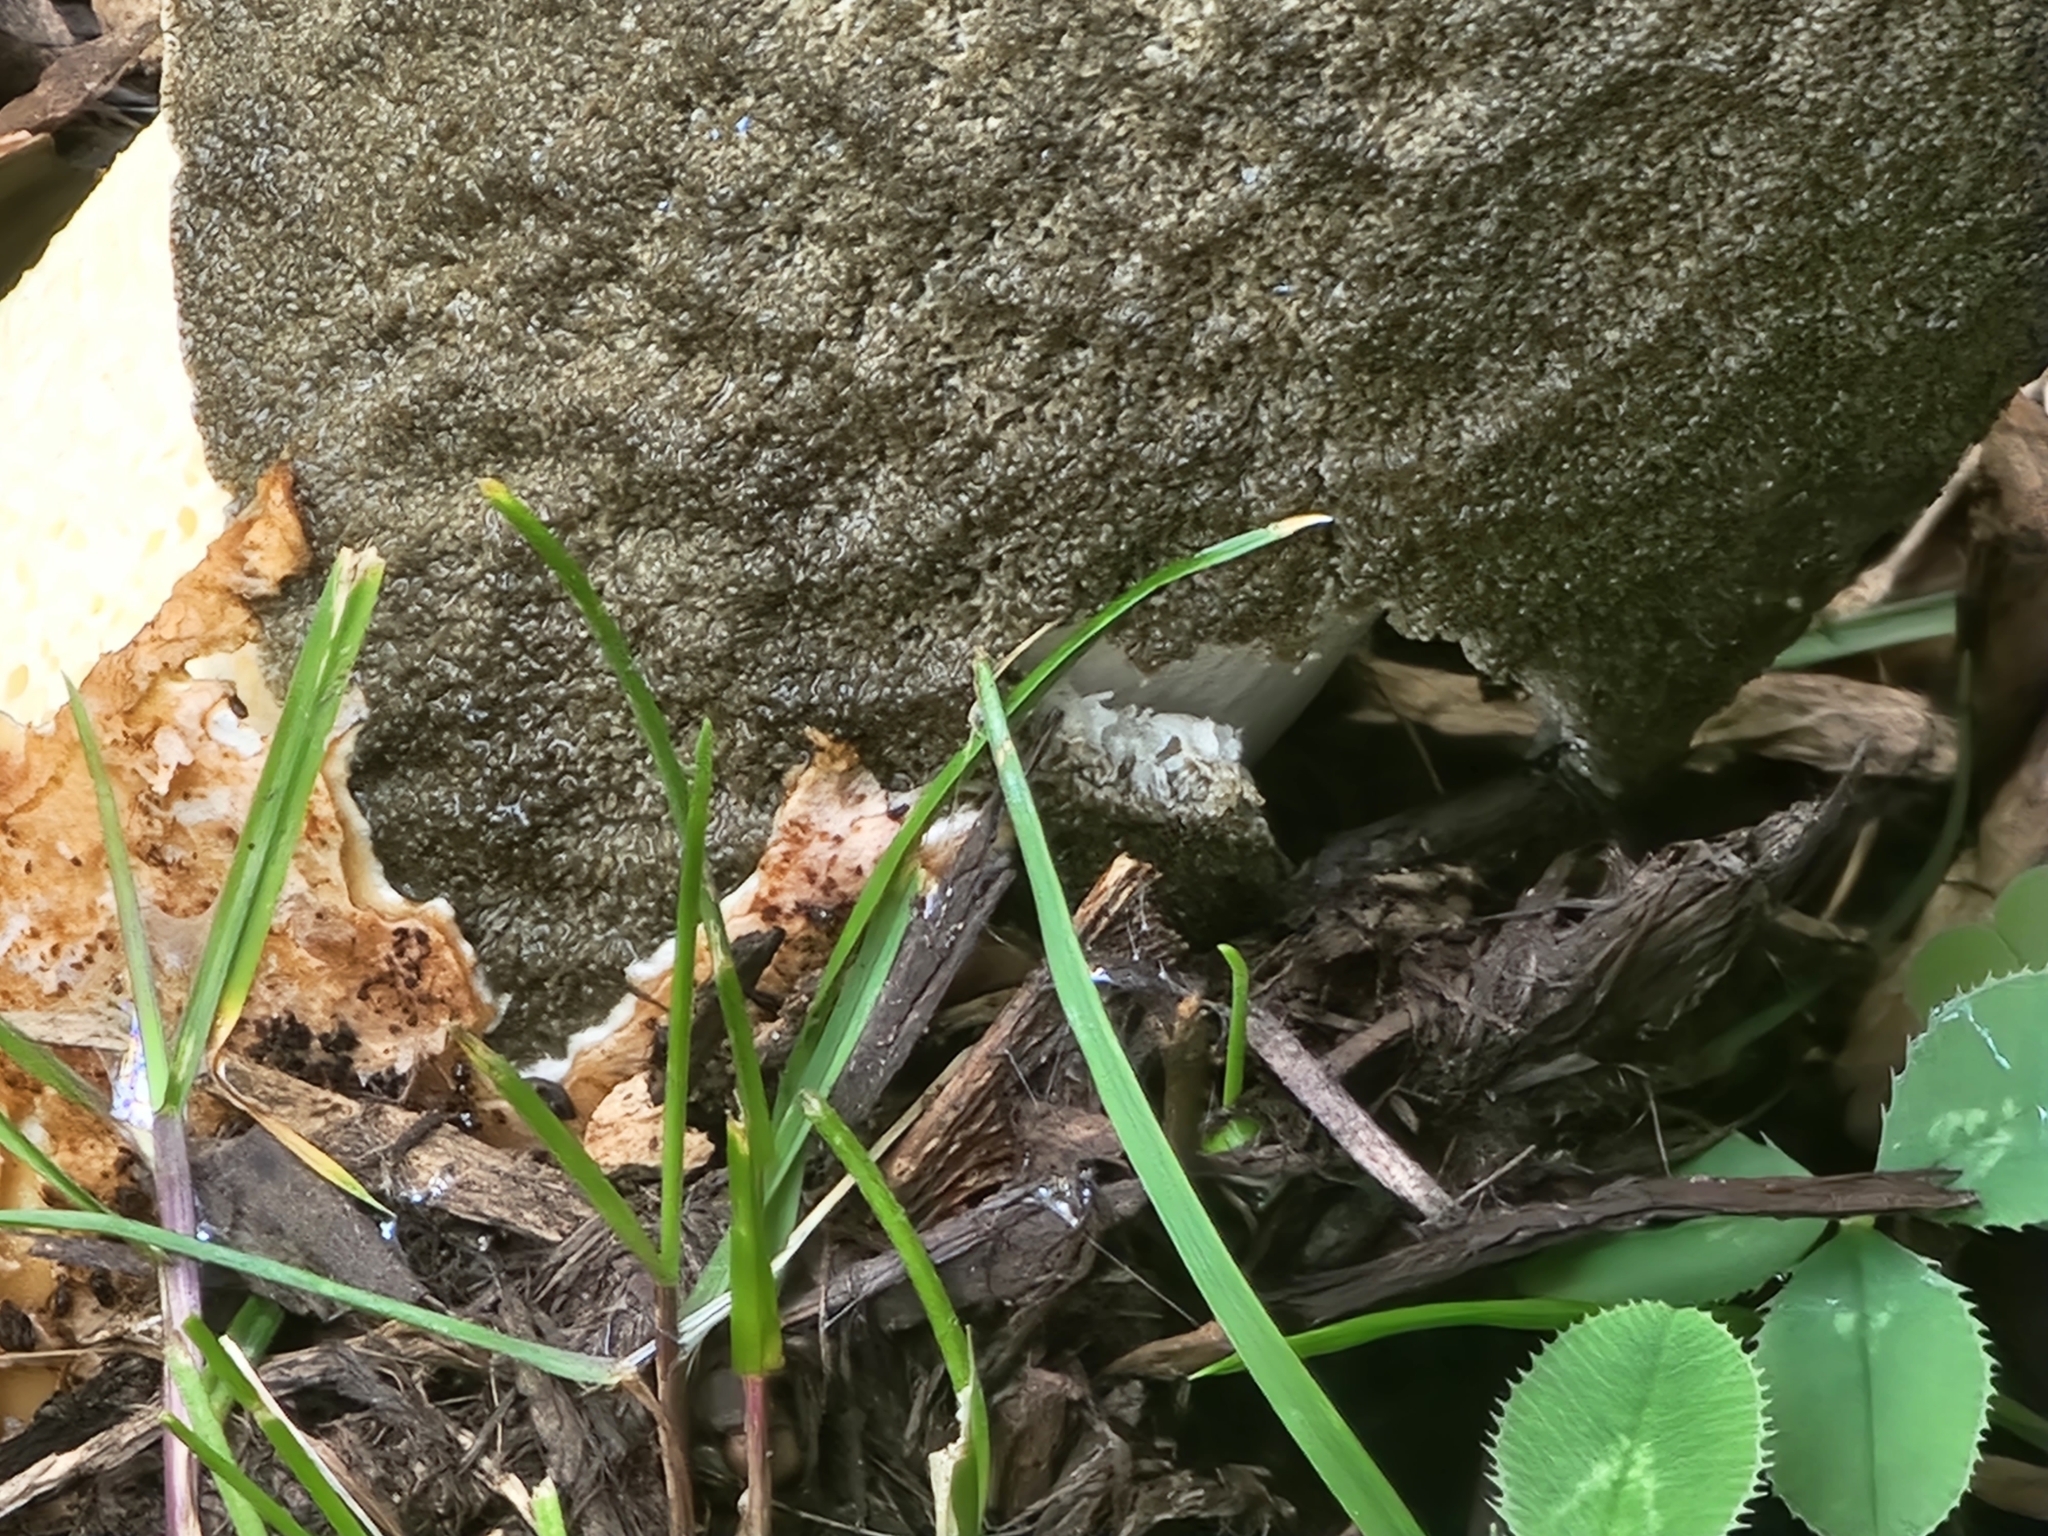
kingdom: Fungi
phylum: Basidiomycota
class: Agaricomycetes
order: Phallales
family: Phallaceae
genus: Phallus
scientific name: Phallus ravenelii
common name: Ravenel's stinkhorn
